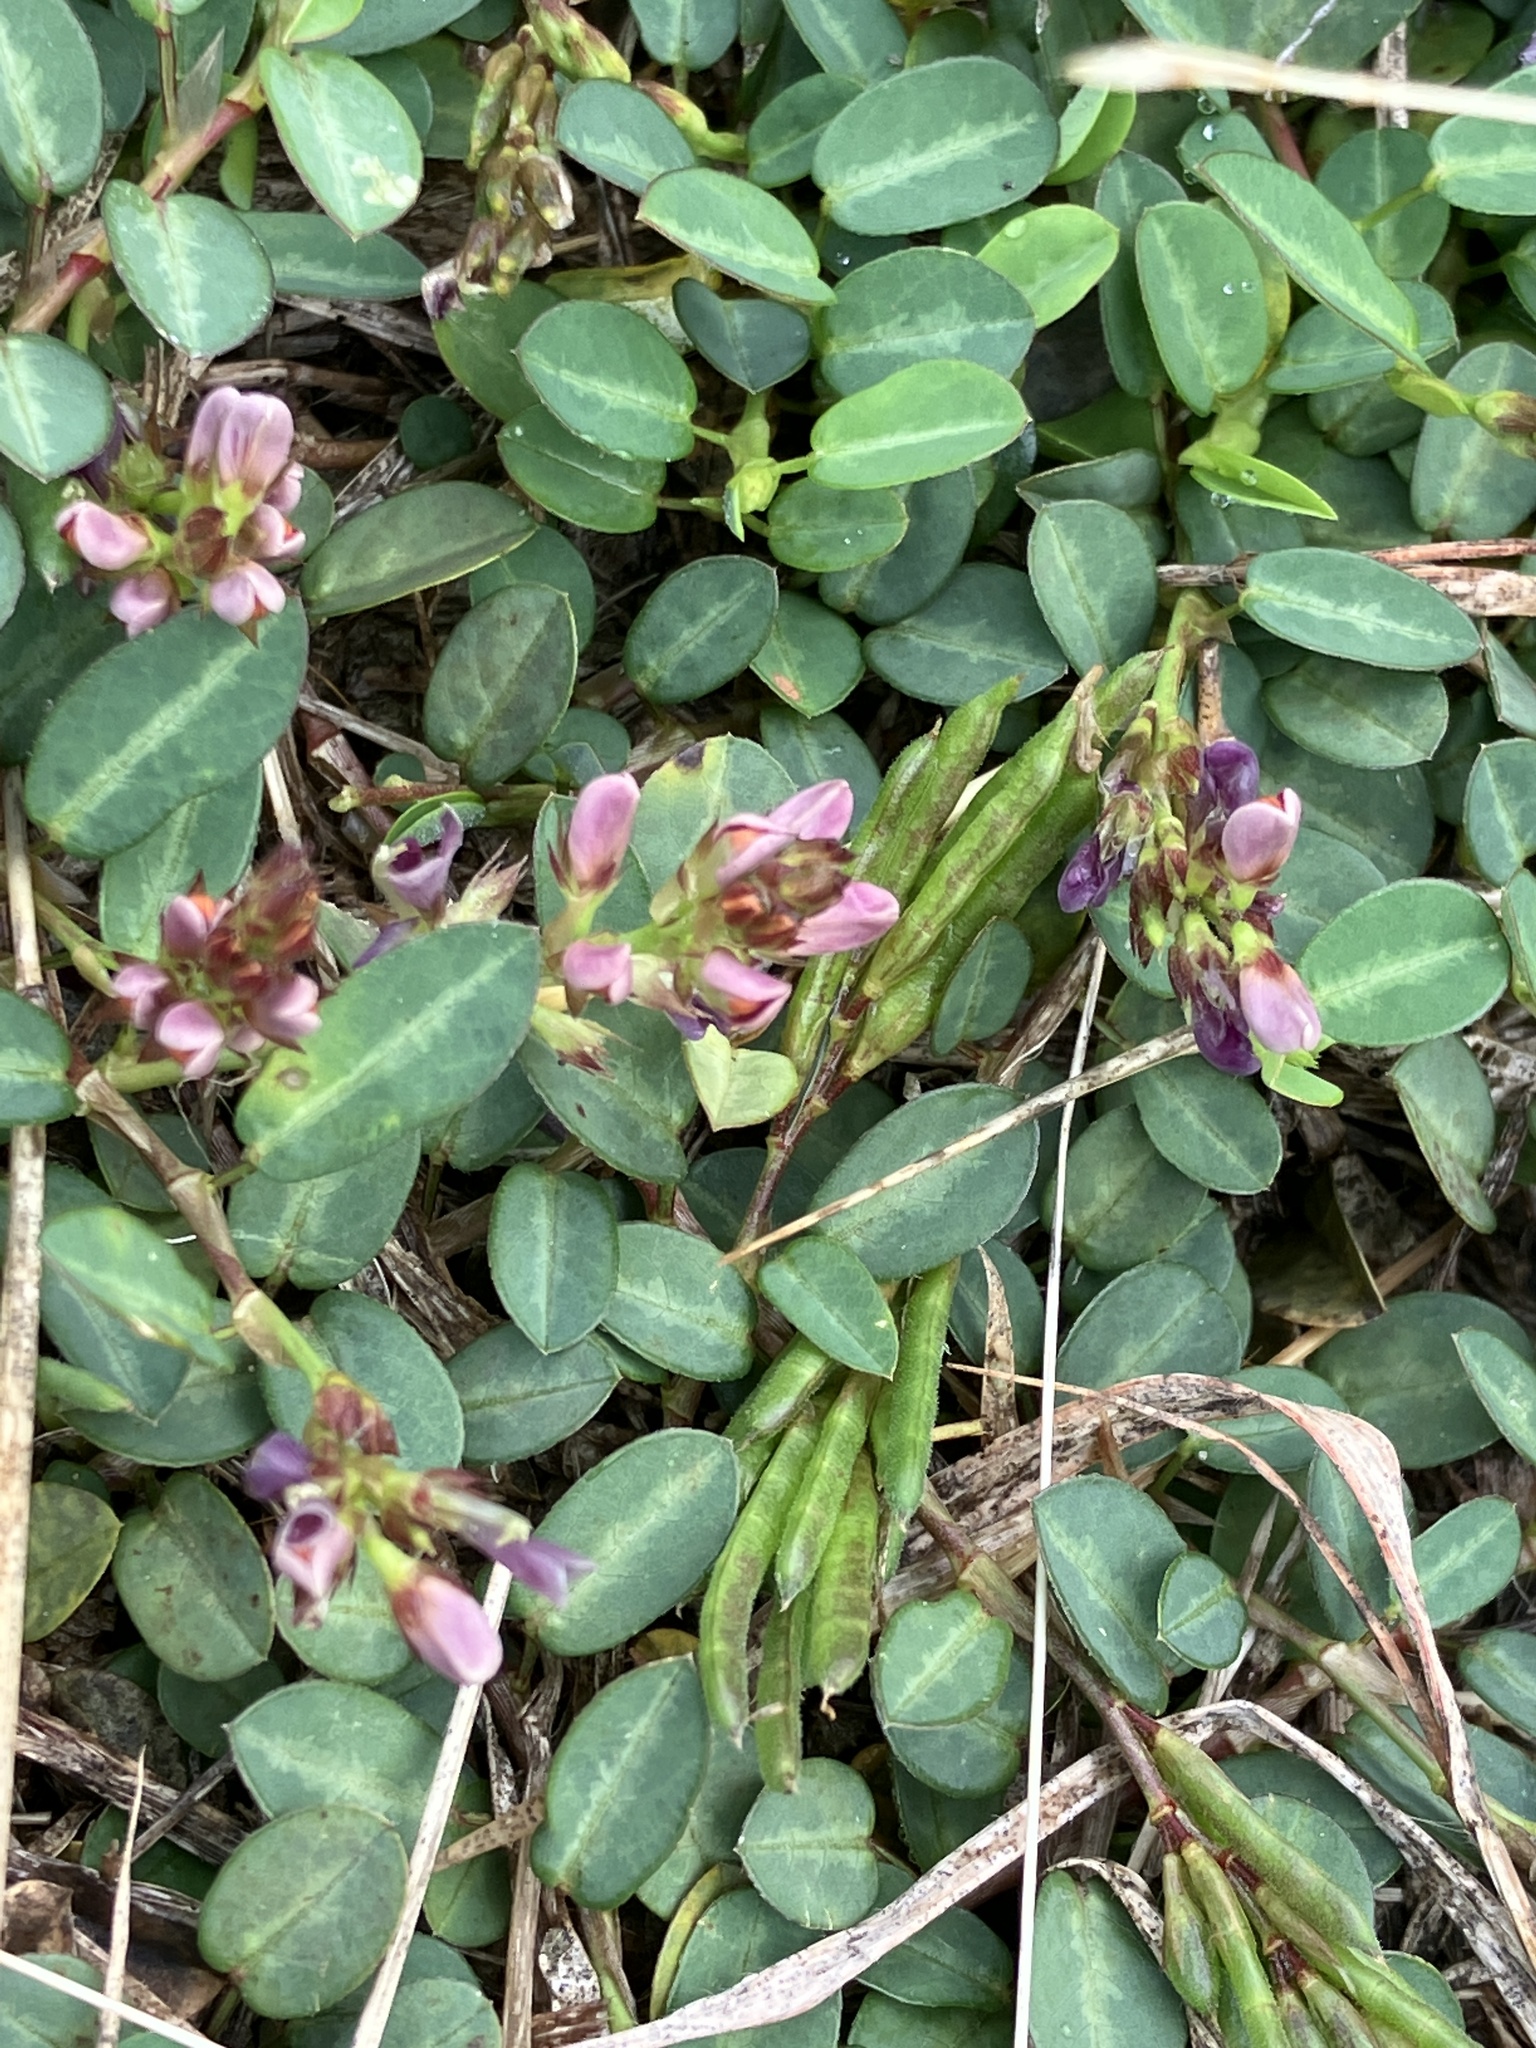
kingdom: Plantae
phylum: Tracheophyta
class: Magnoliopsida
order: Fabales
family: Fabaceae
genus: Alysicarpus
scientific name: Alysicarpus vaginalis
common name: White moneywort
